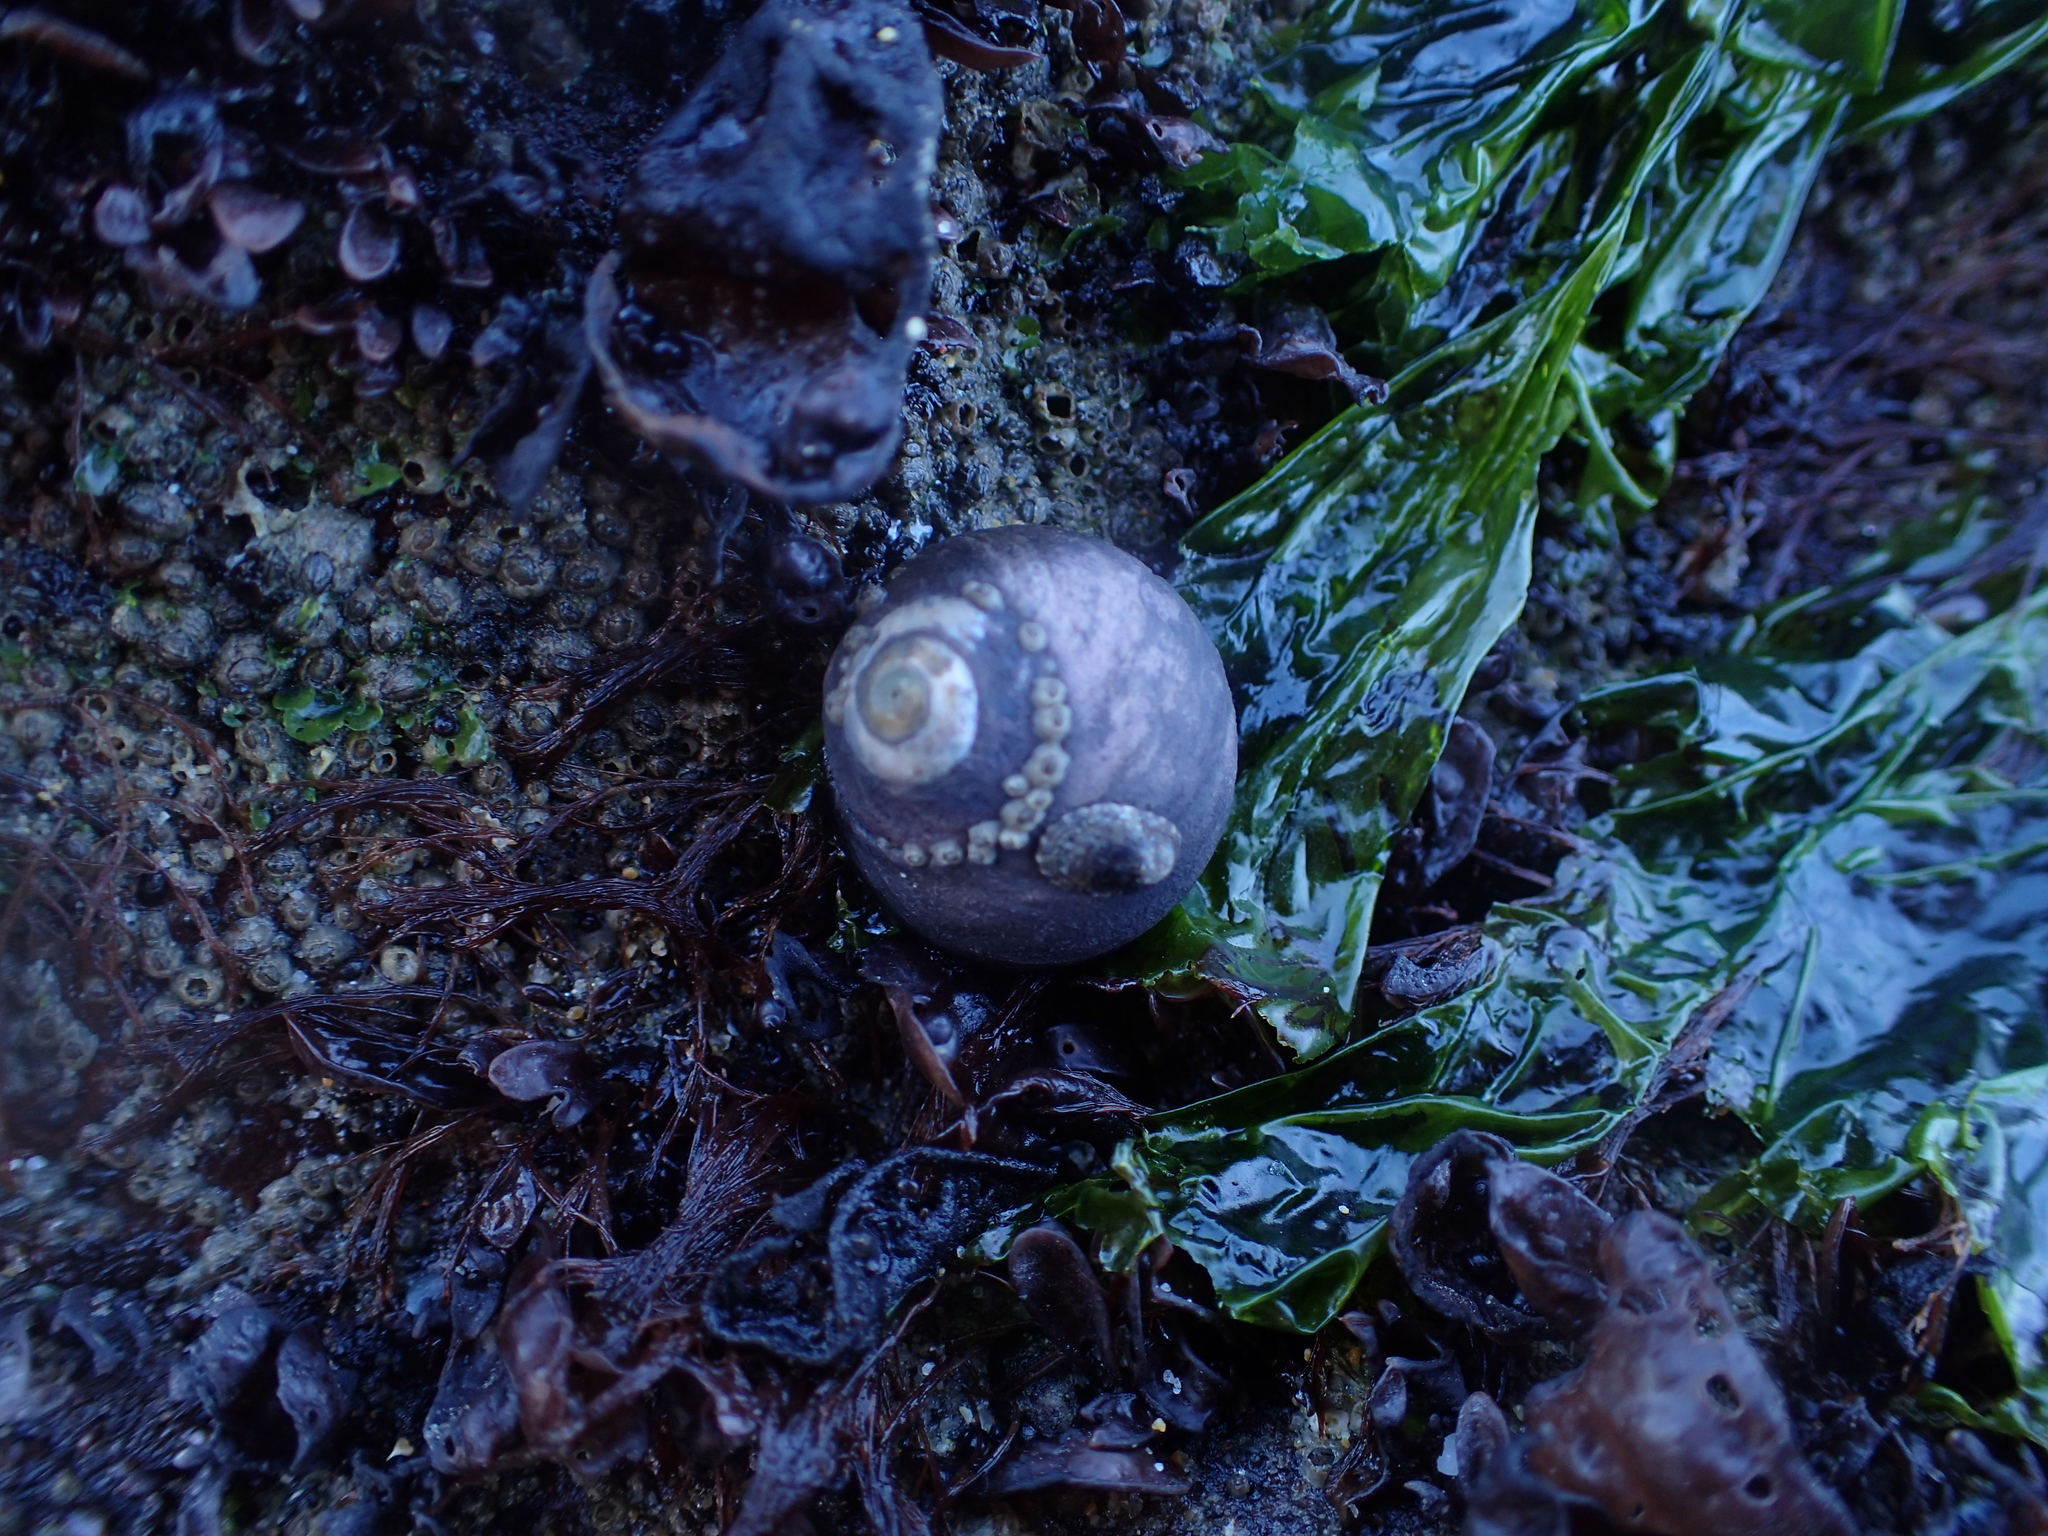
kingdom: Animalia
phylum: Mollusca
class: Gastropoda
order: Trochida
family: Tegulidae
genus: Tegula
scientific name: Tegula funebralis
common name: Black tegula
